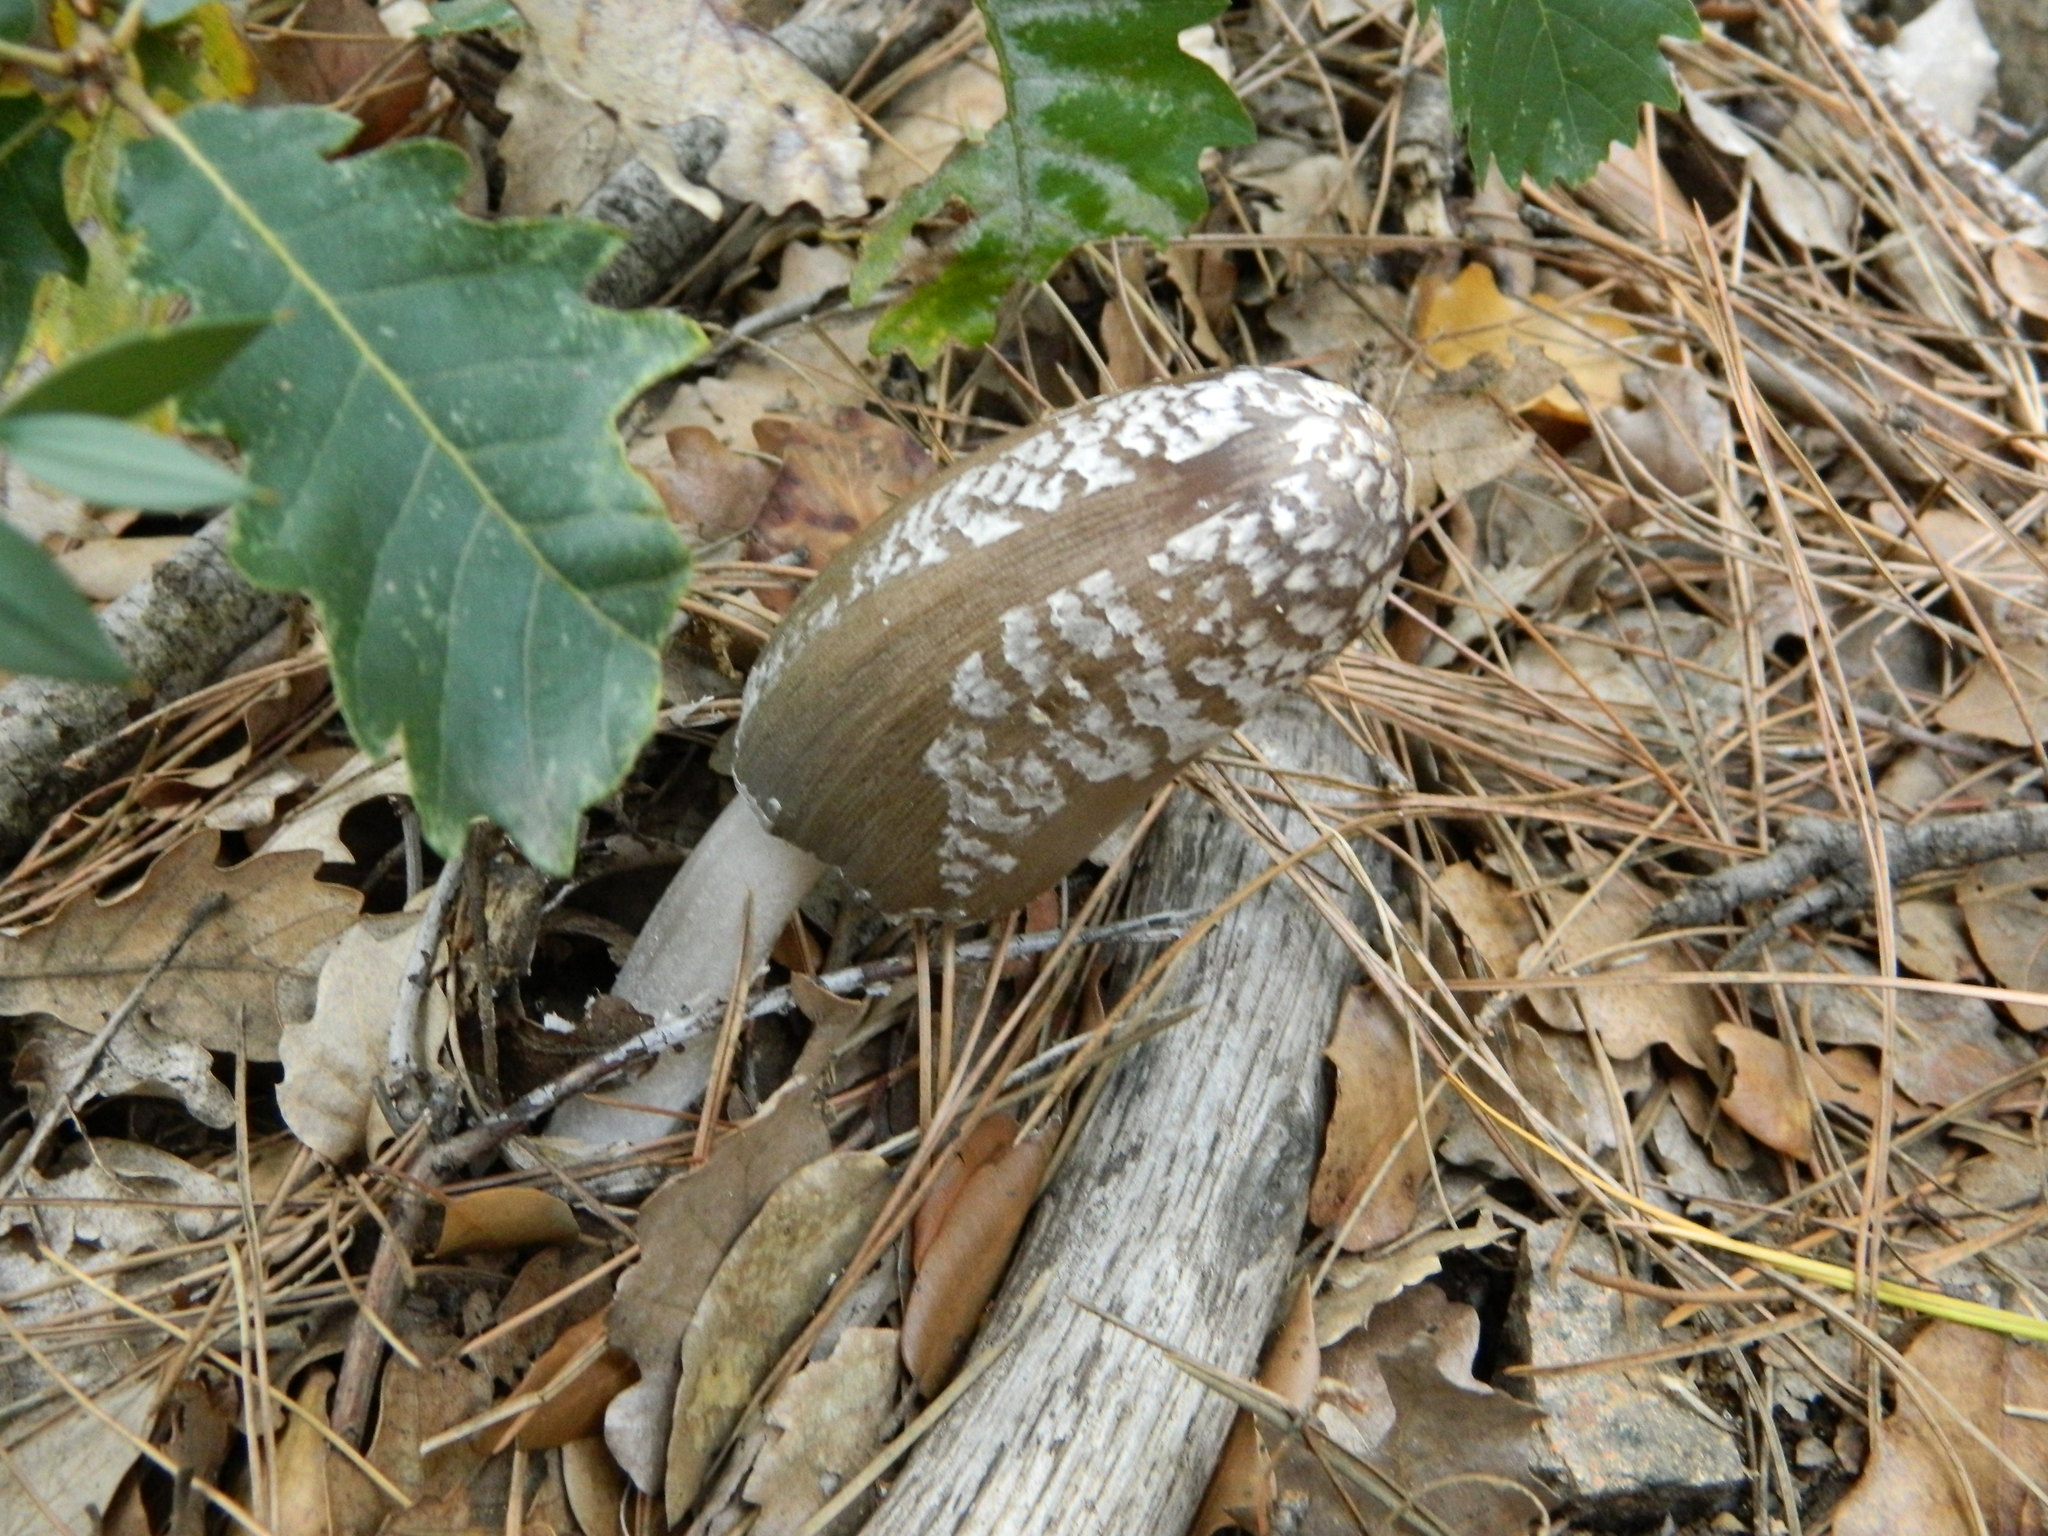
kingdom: Fungi
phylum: Basidiomycota
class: Agaricomycetes
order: Agaricales
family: Psathyrellaceae
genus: Coprinopsis
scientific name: Coprinopsis picacea
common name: Magpie inkcap
